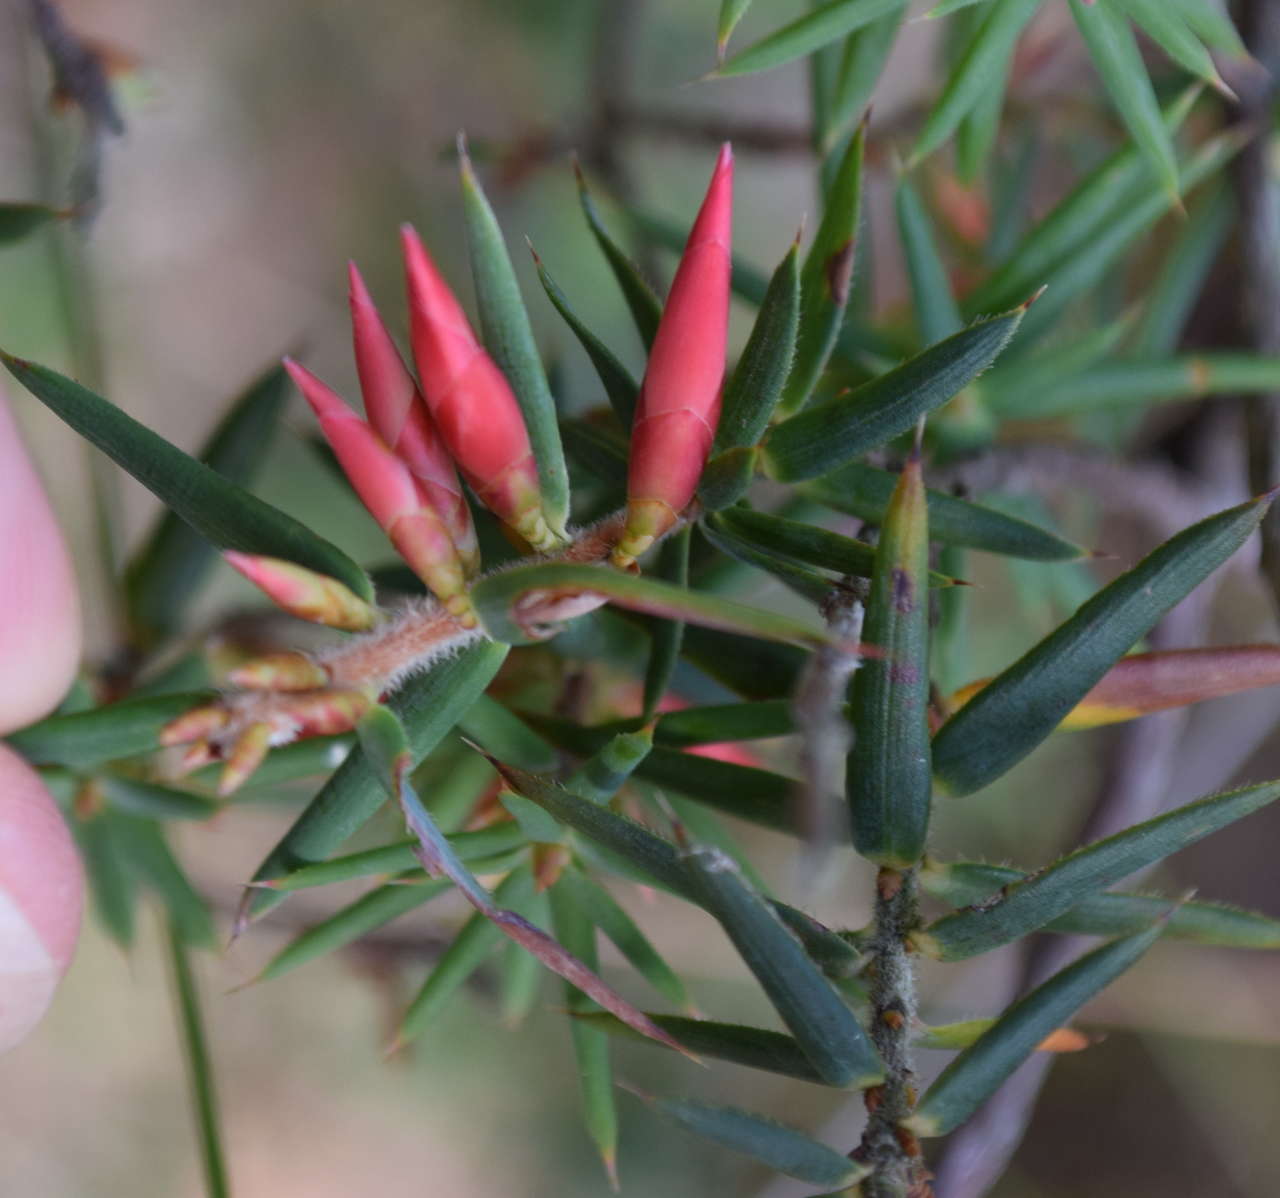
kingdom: Plantae
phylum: Tracheophyta
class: Magnoliopsida
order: Ericales
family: Ericaceae
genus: Stenanthera
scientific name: Stenanthera conostephioides
